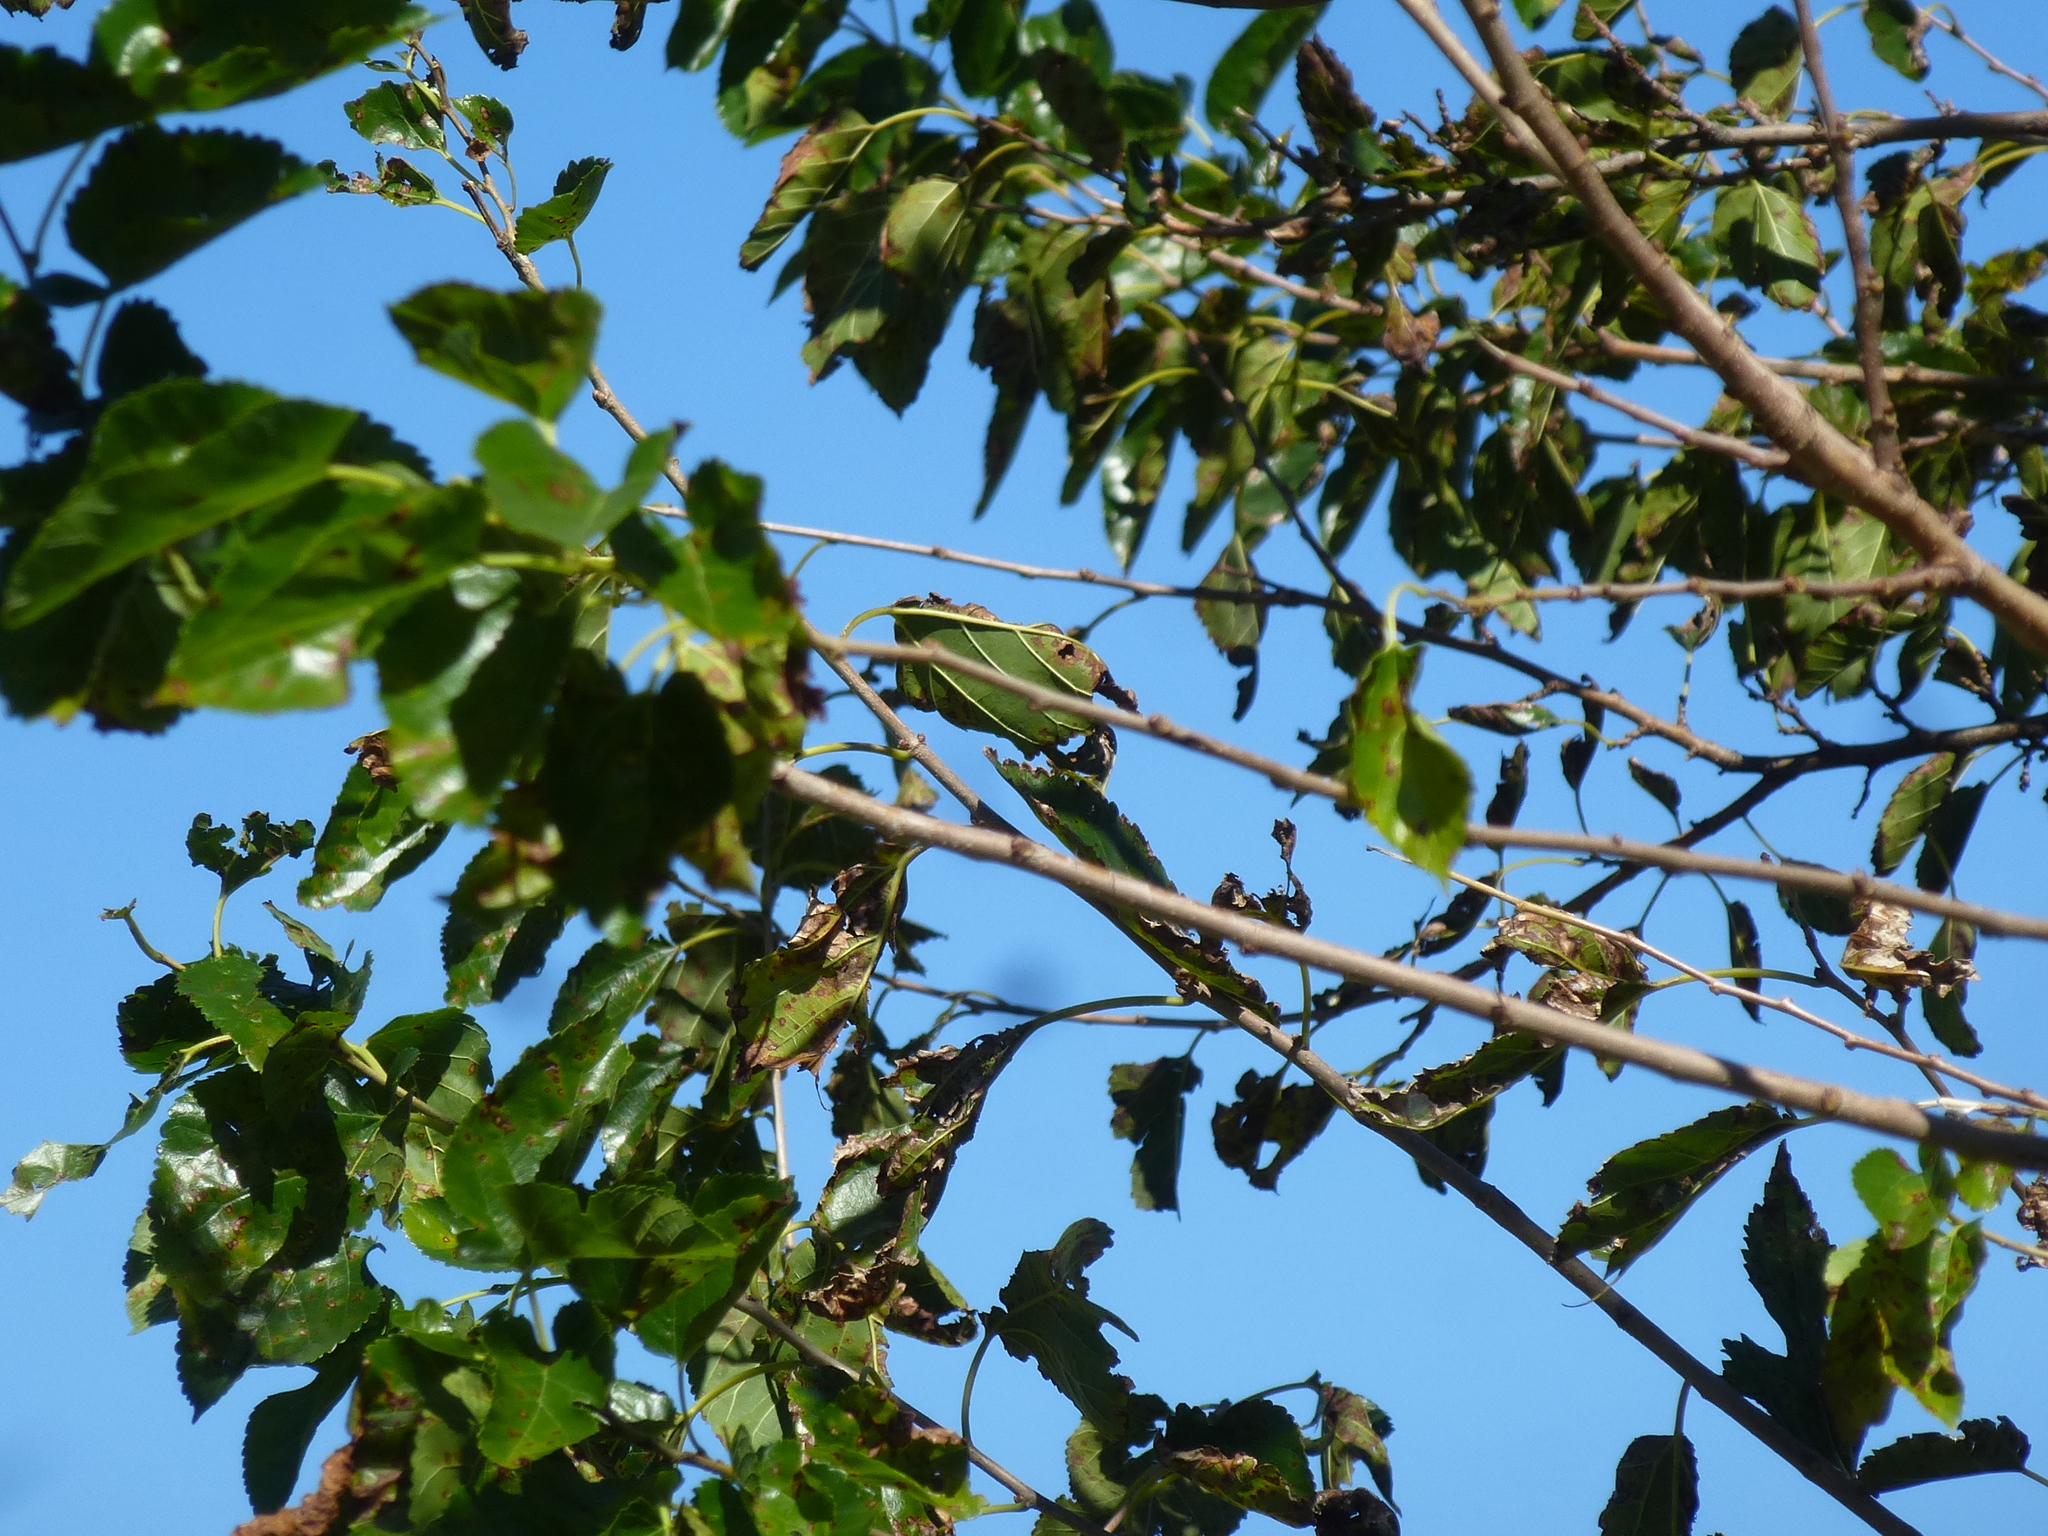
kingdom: Animalia
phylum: Chordata
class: Aves
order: Passeriformes
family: Mimidae
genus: Mimus
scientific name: Mimus polyglottos
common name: Northern mockingbird
